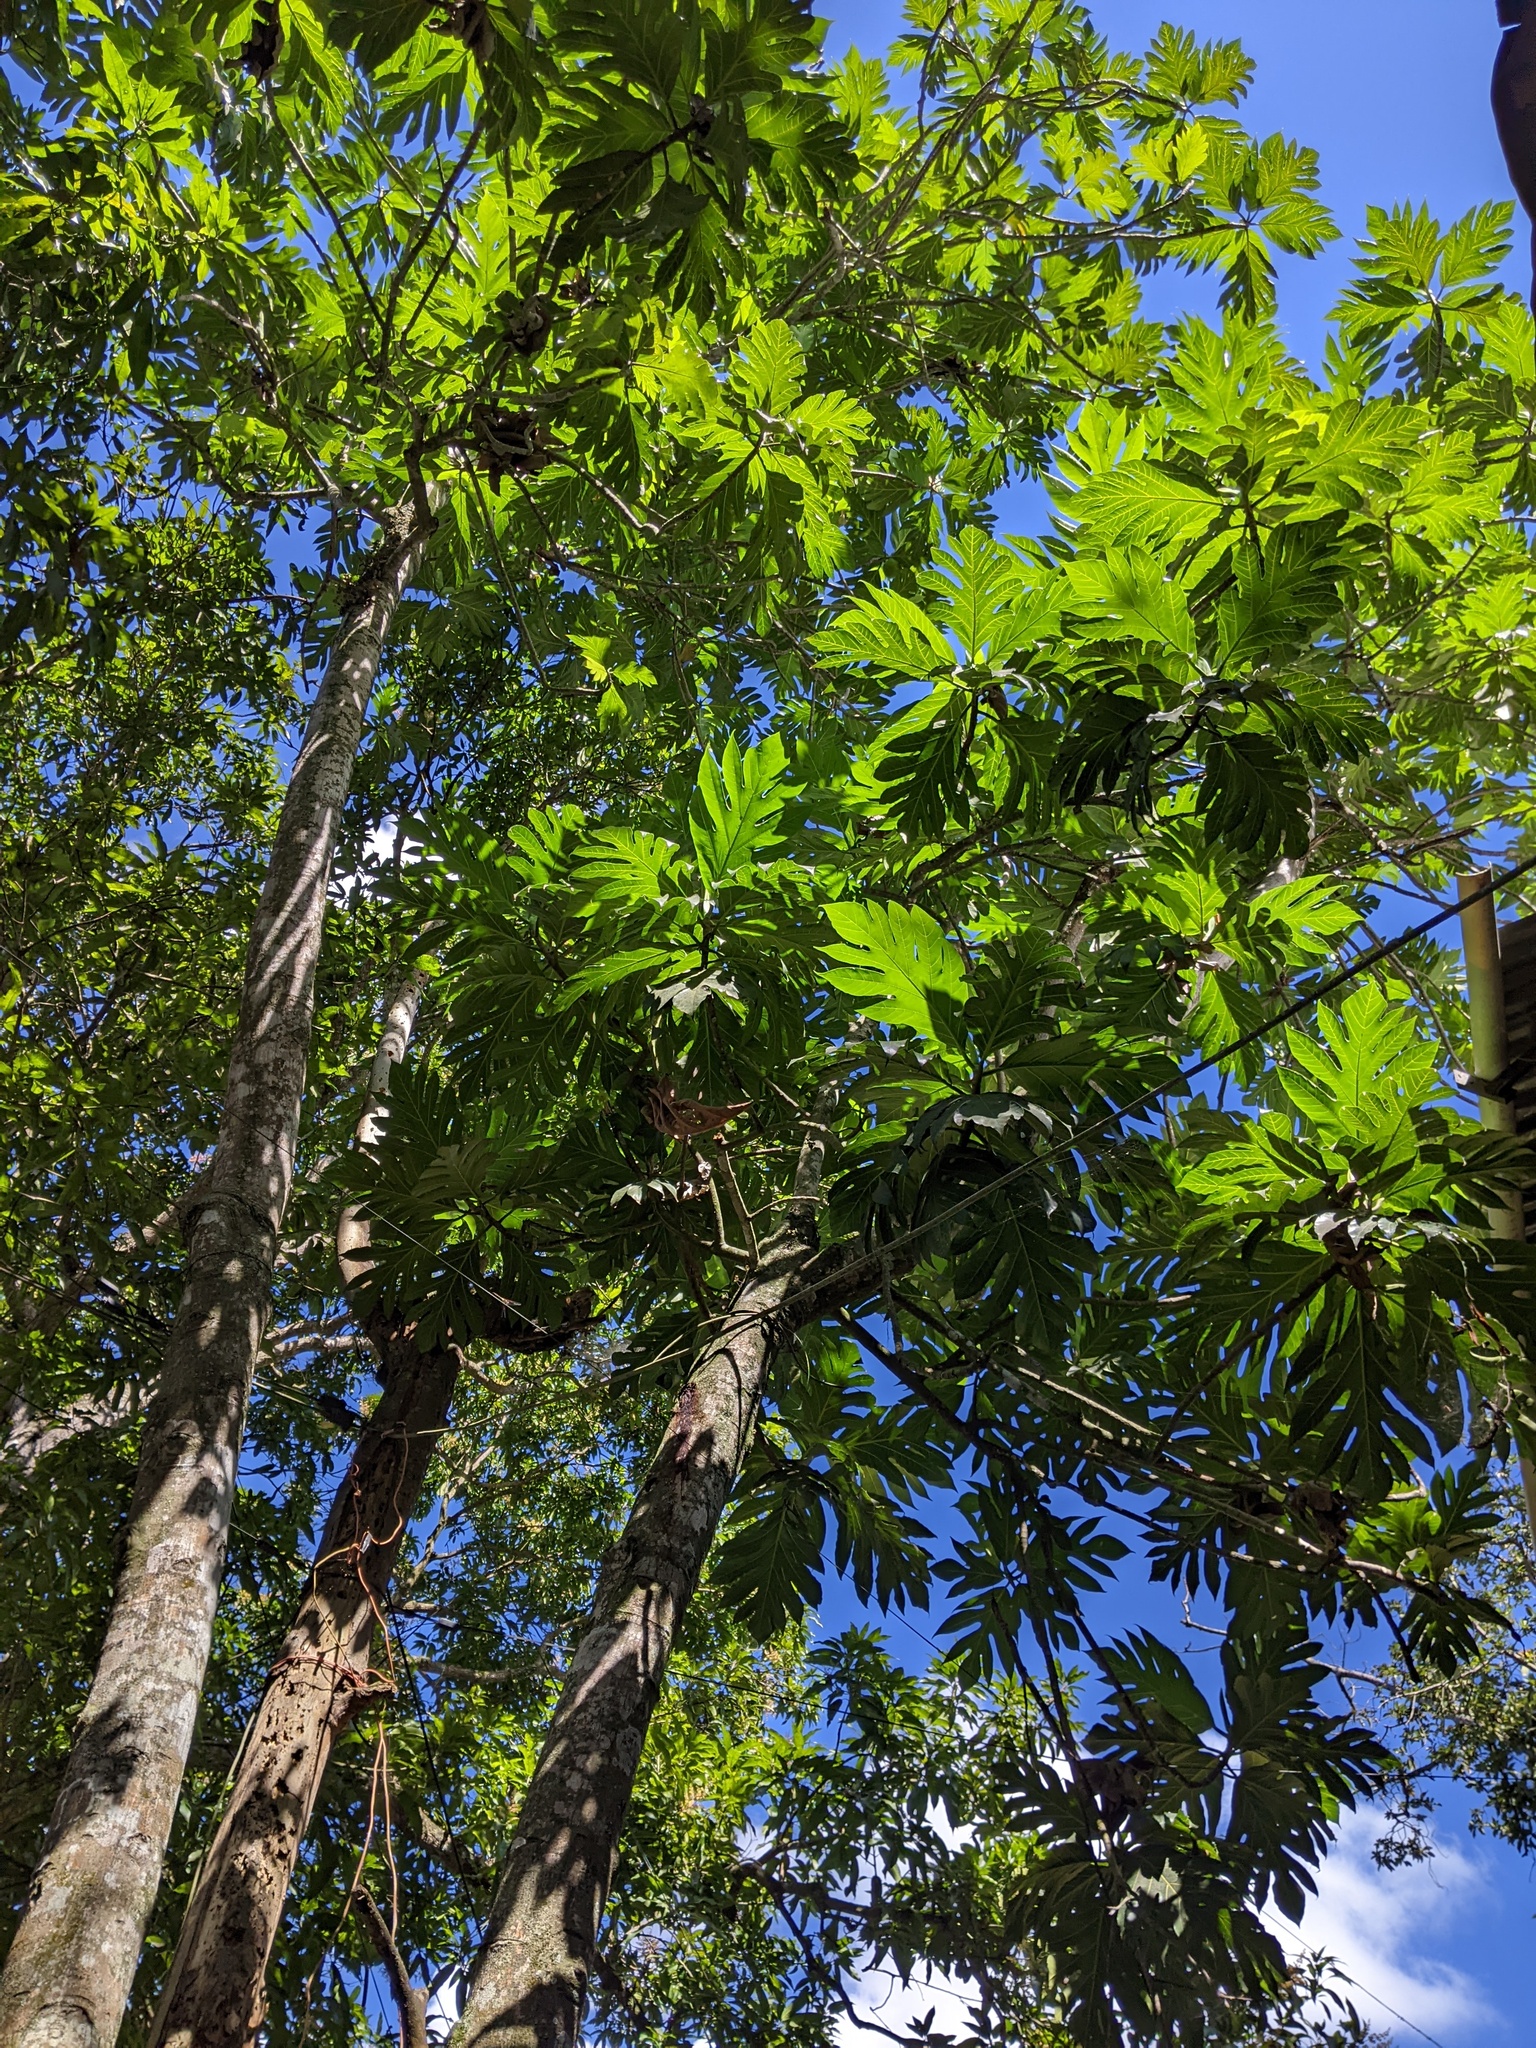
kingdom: Plantae
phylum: Tracheophyta
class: Magnoliopsida
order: Rosales
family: Moraceae
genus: Artocarpus
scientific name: Artocarpus altilis
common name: Breadfruit
